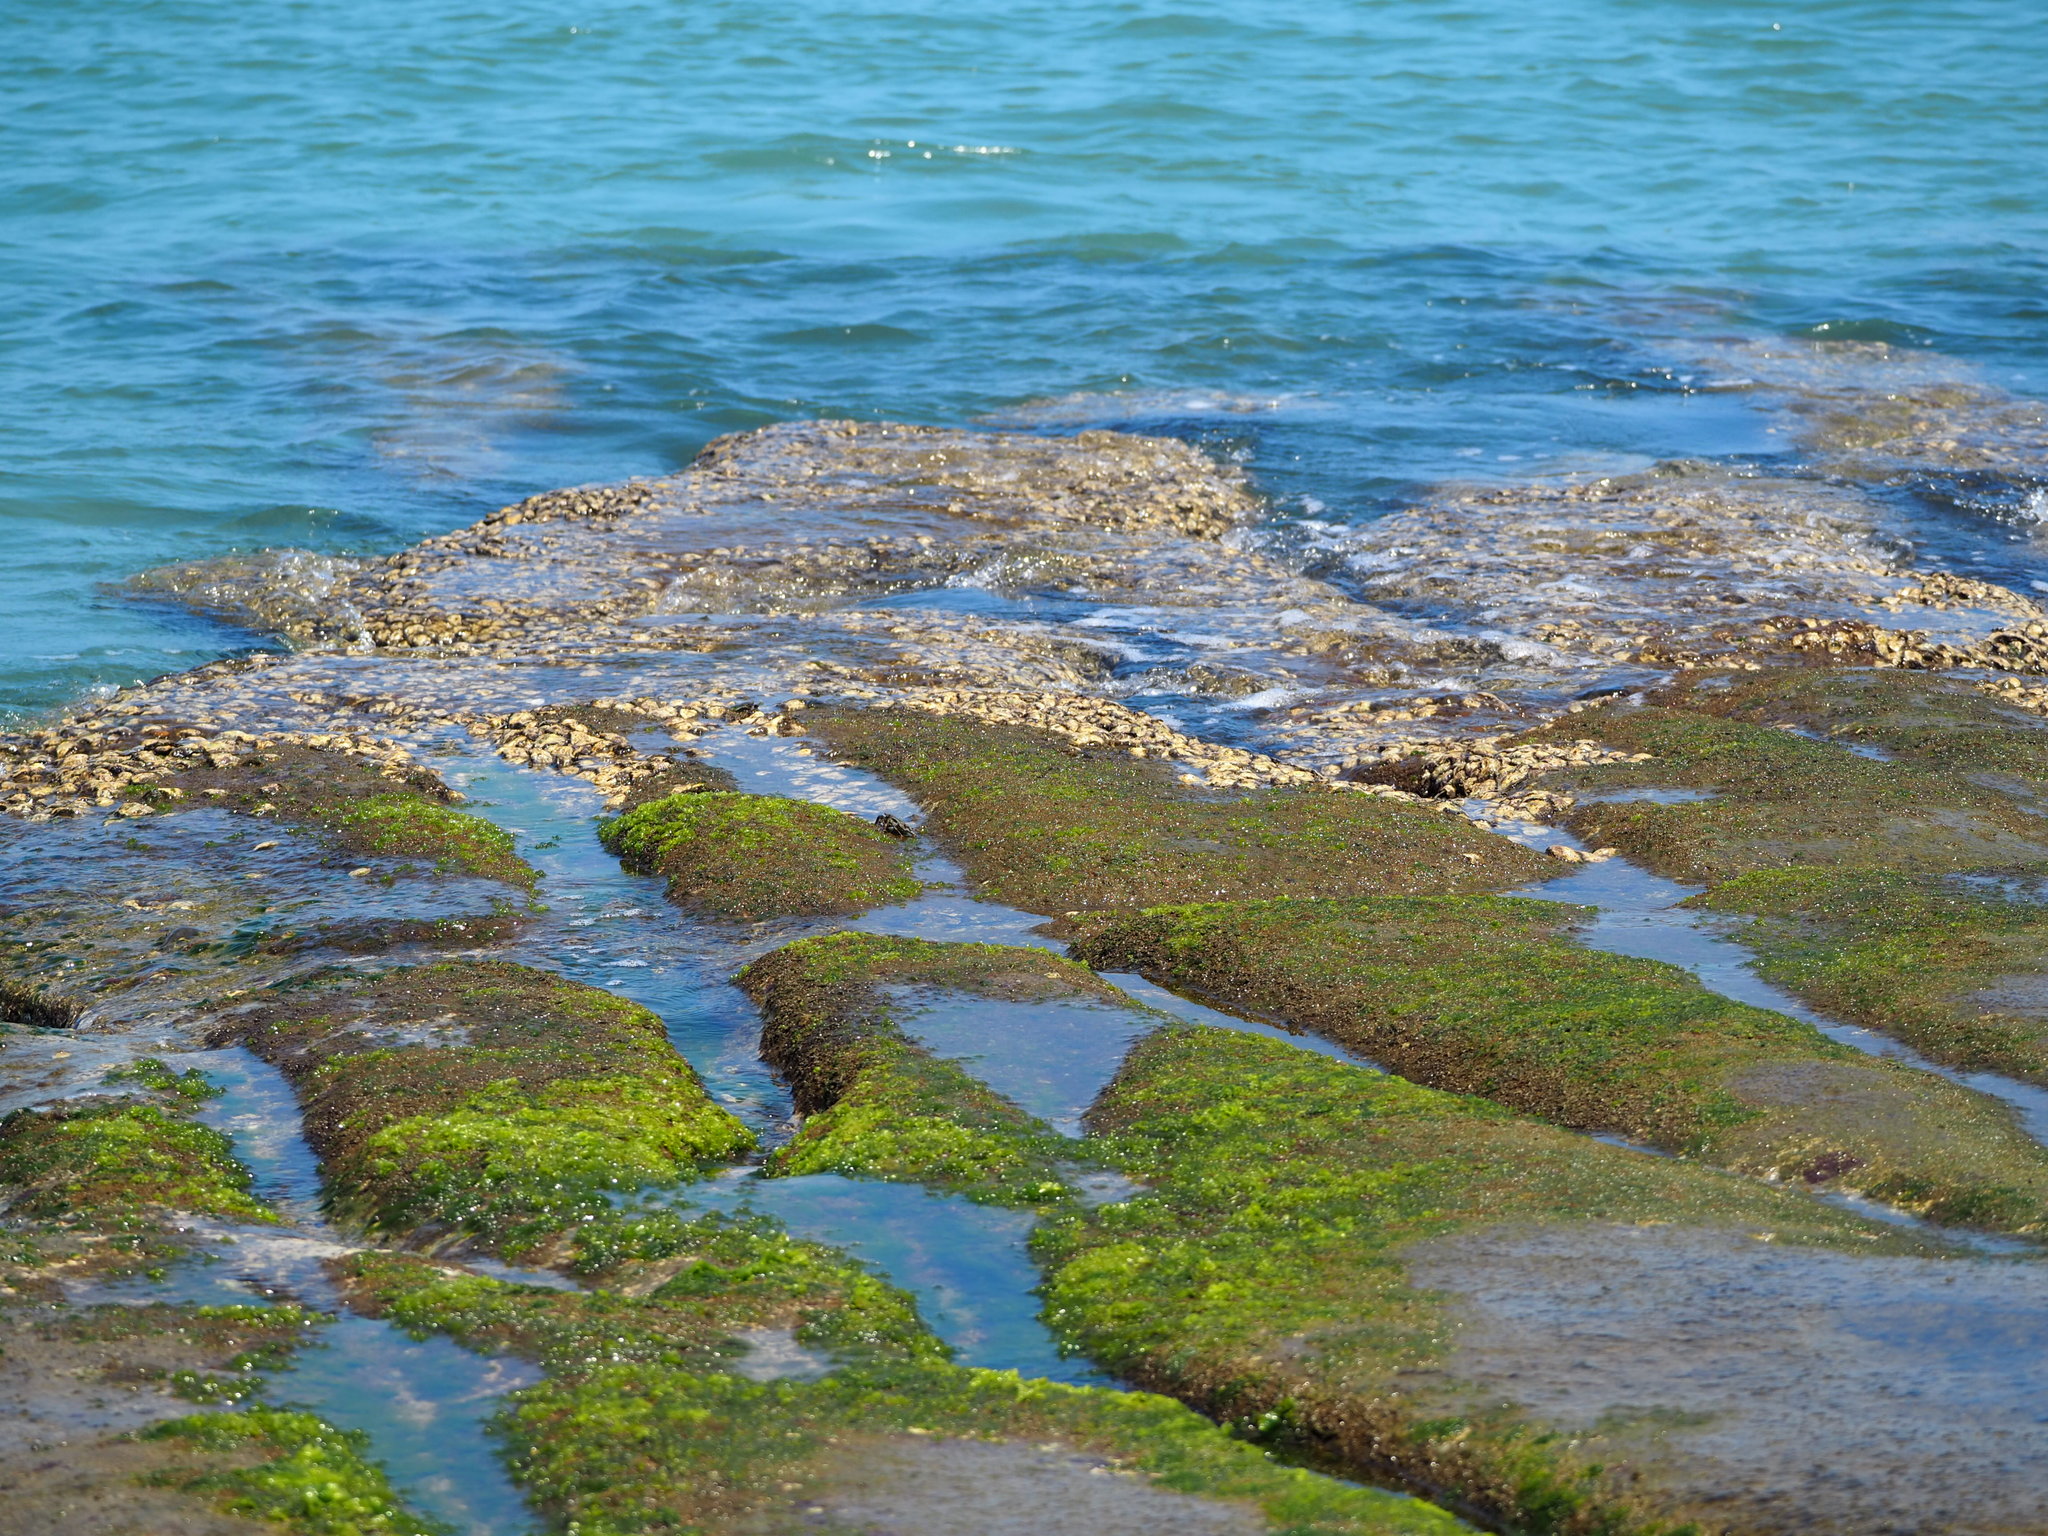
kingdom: Plantae
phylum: Chlorophyta
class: Ulvophyceae
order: Ulvales
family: Ulvaceae
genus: Ulva
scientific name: Ulva lactuca
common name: Sea lettuce
